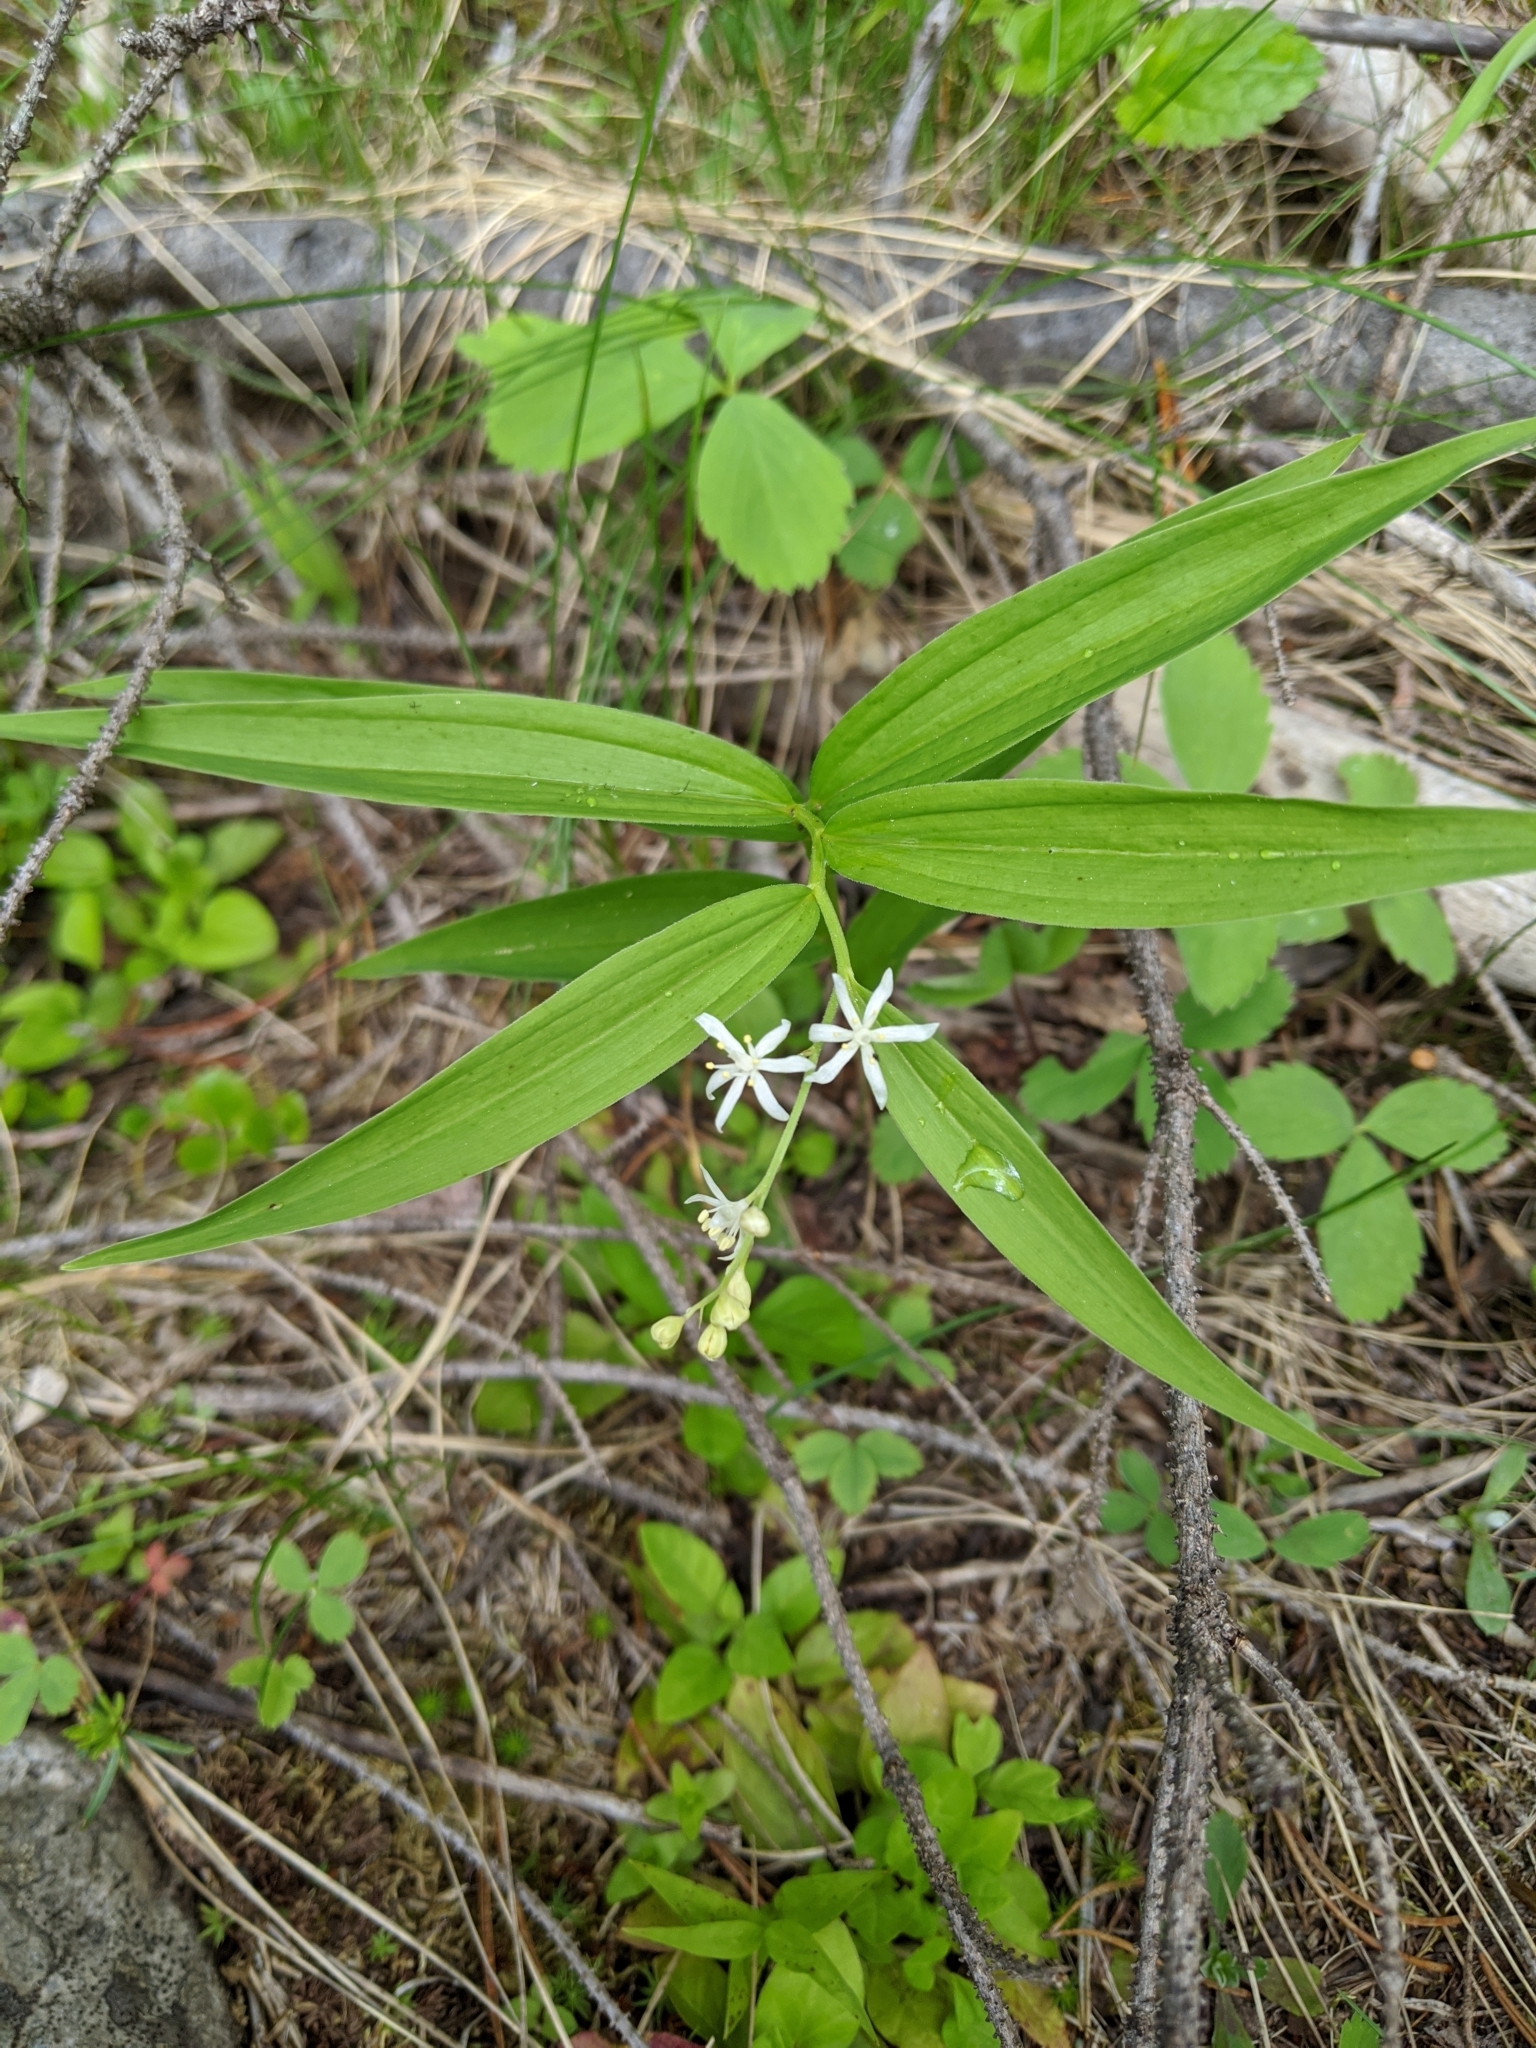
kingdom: Plantae
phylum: Tracheophyta
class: Liliopsida
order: Asparagales
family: Asparagaceae
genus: Maianthemum
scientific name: Maianthemum stellatum
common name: Little false solomon's seal
